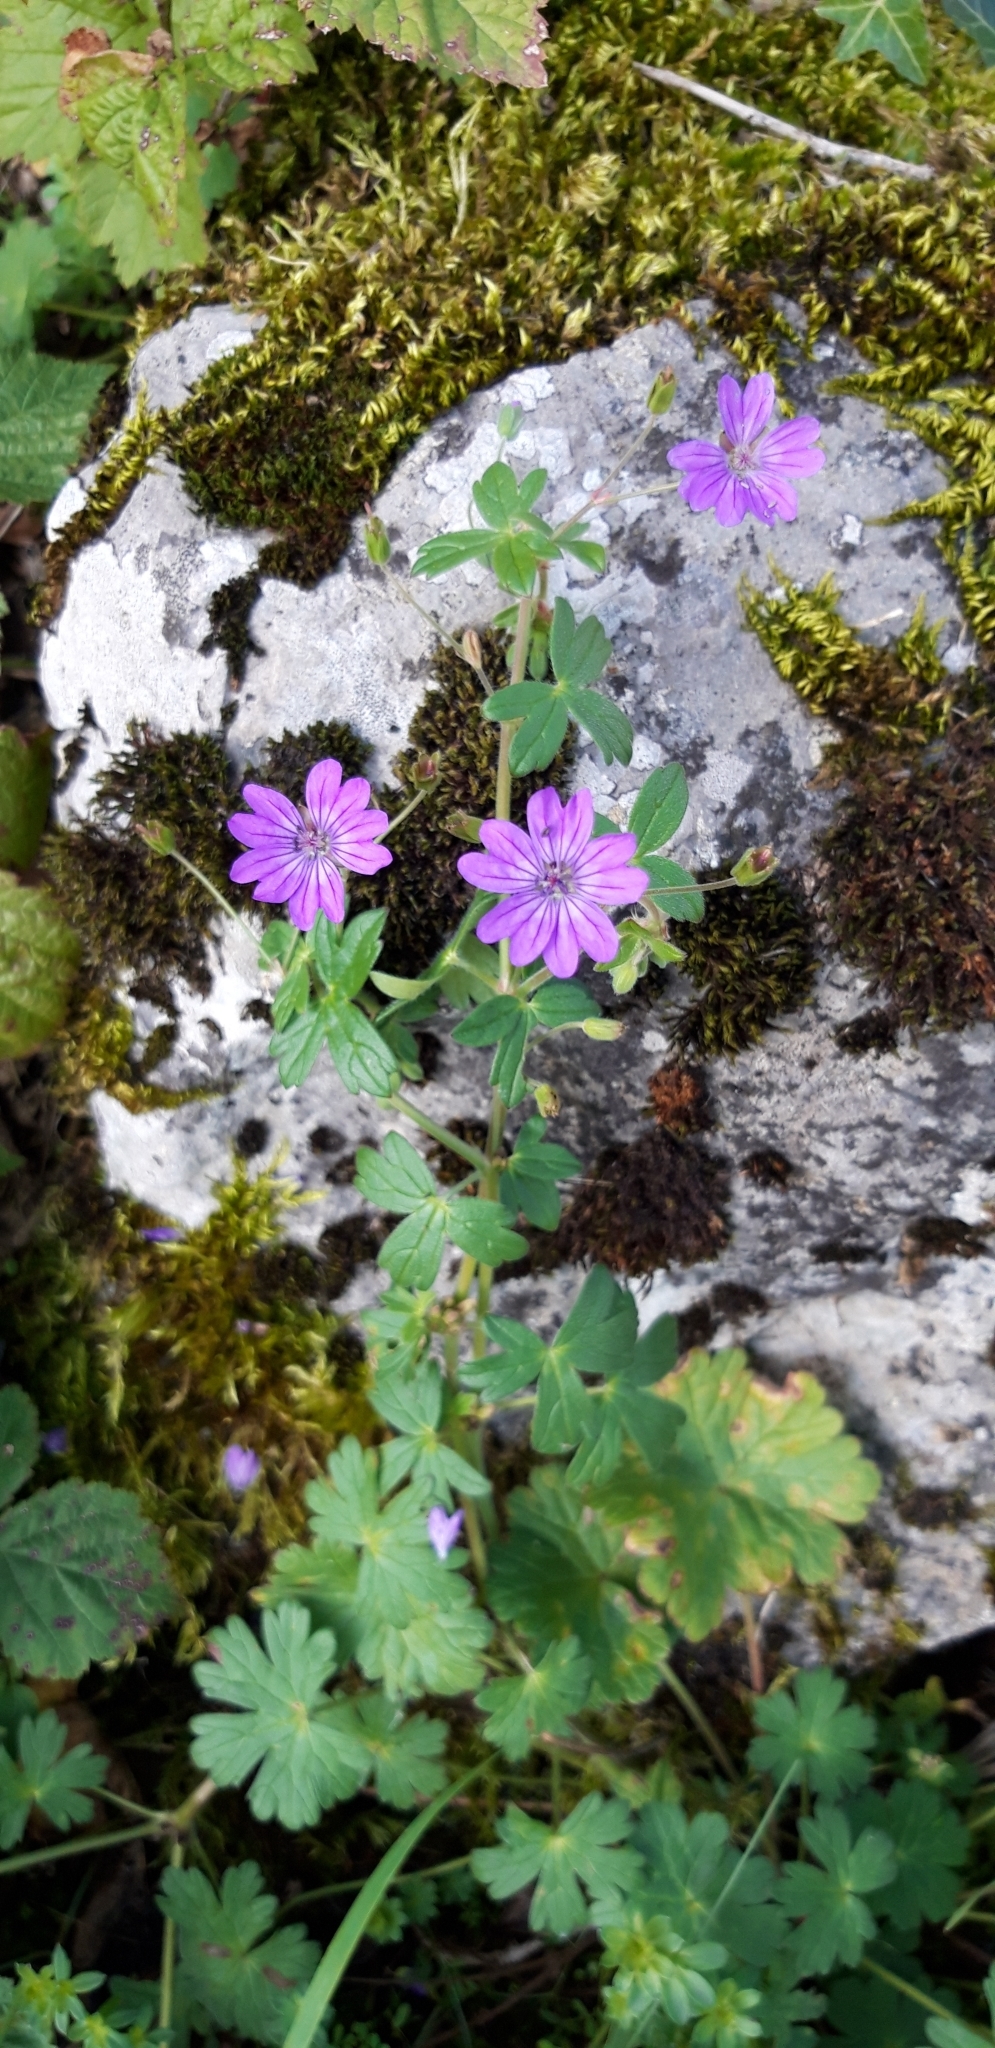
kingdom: Plantae
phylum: Tracheophyta
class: Magnoliopsida
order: Geraniales
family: Geraniaceae
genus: Geranium
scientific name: Geranium pyrenaicum
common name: Hedgerow crane's-bill
